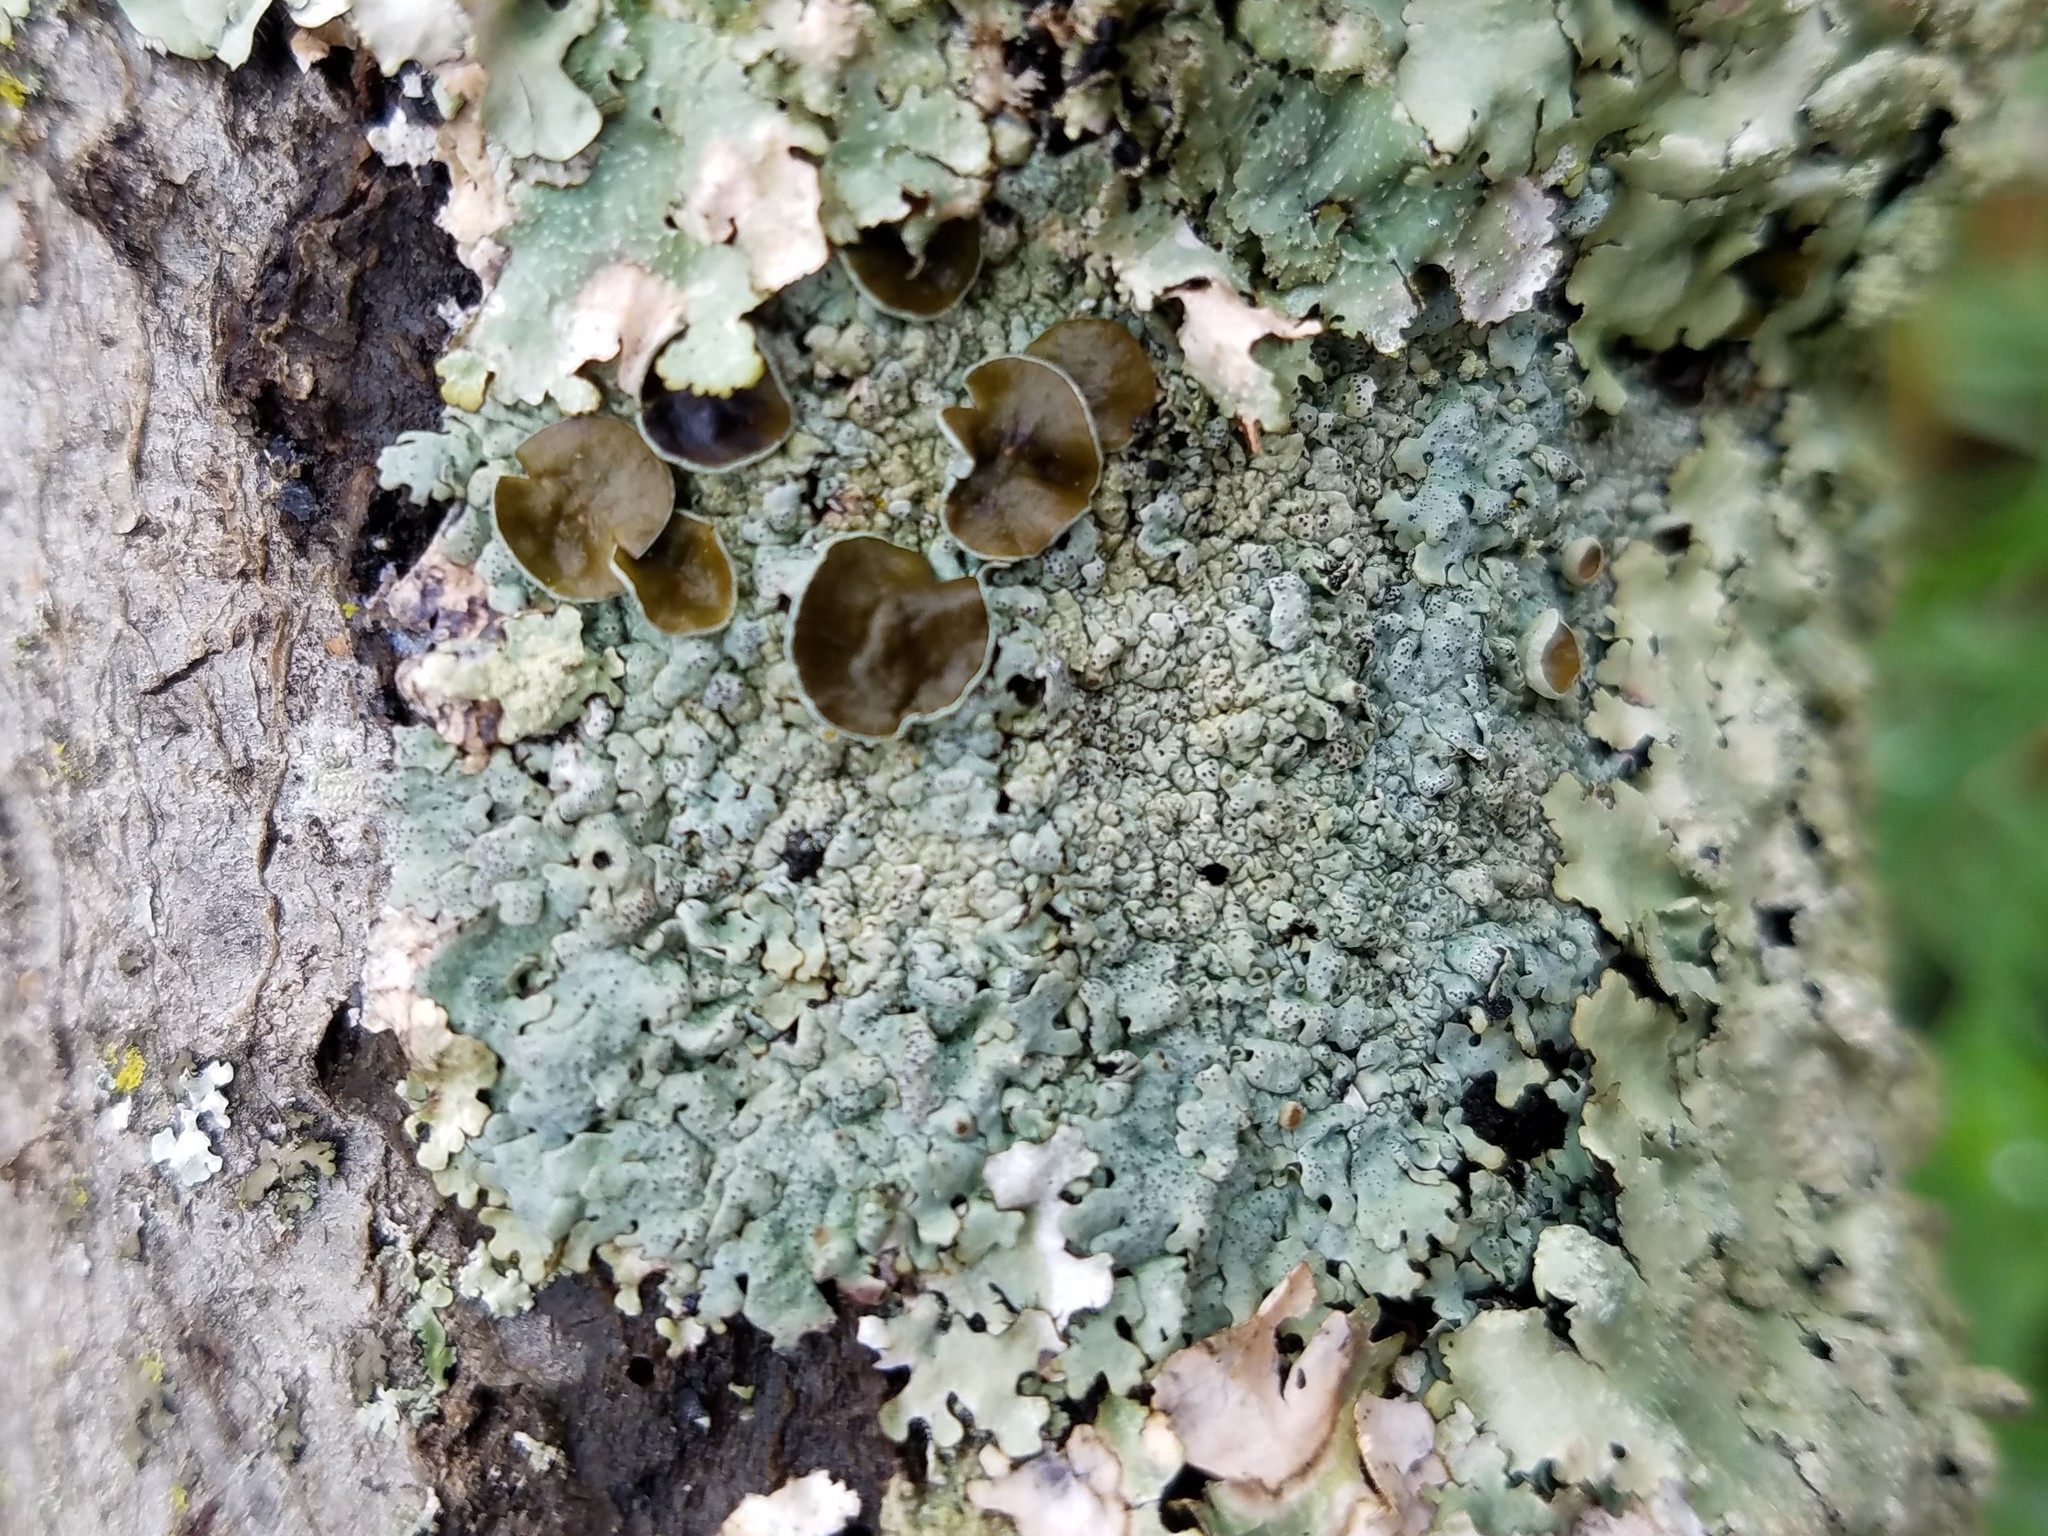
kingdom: Fungi
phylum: Ascomycota
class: Lecanoromycetes
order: Lecanorales
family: Parmeliaceae
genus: Hypotrachyna
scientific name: Hypotrachyna livida
